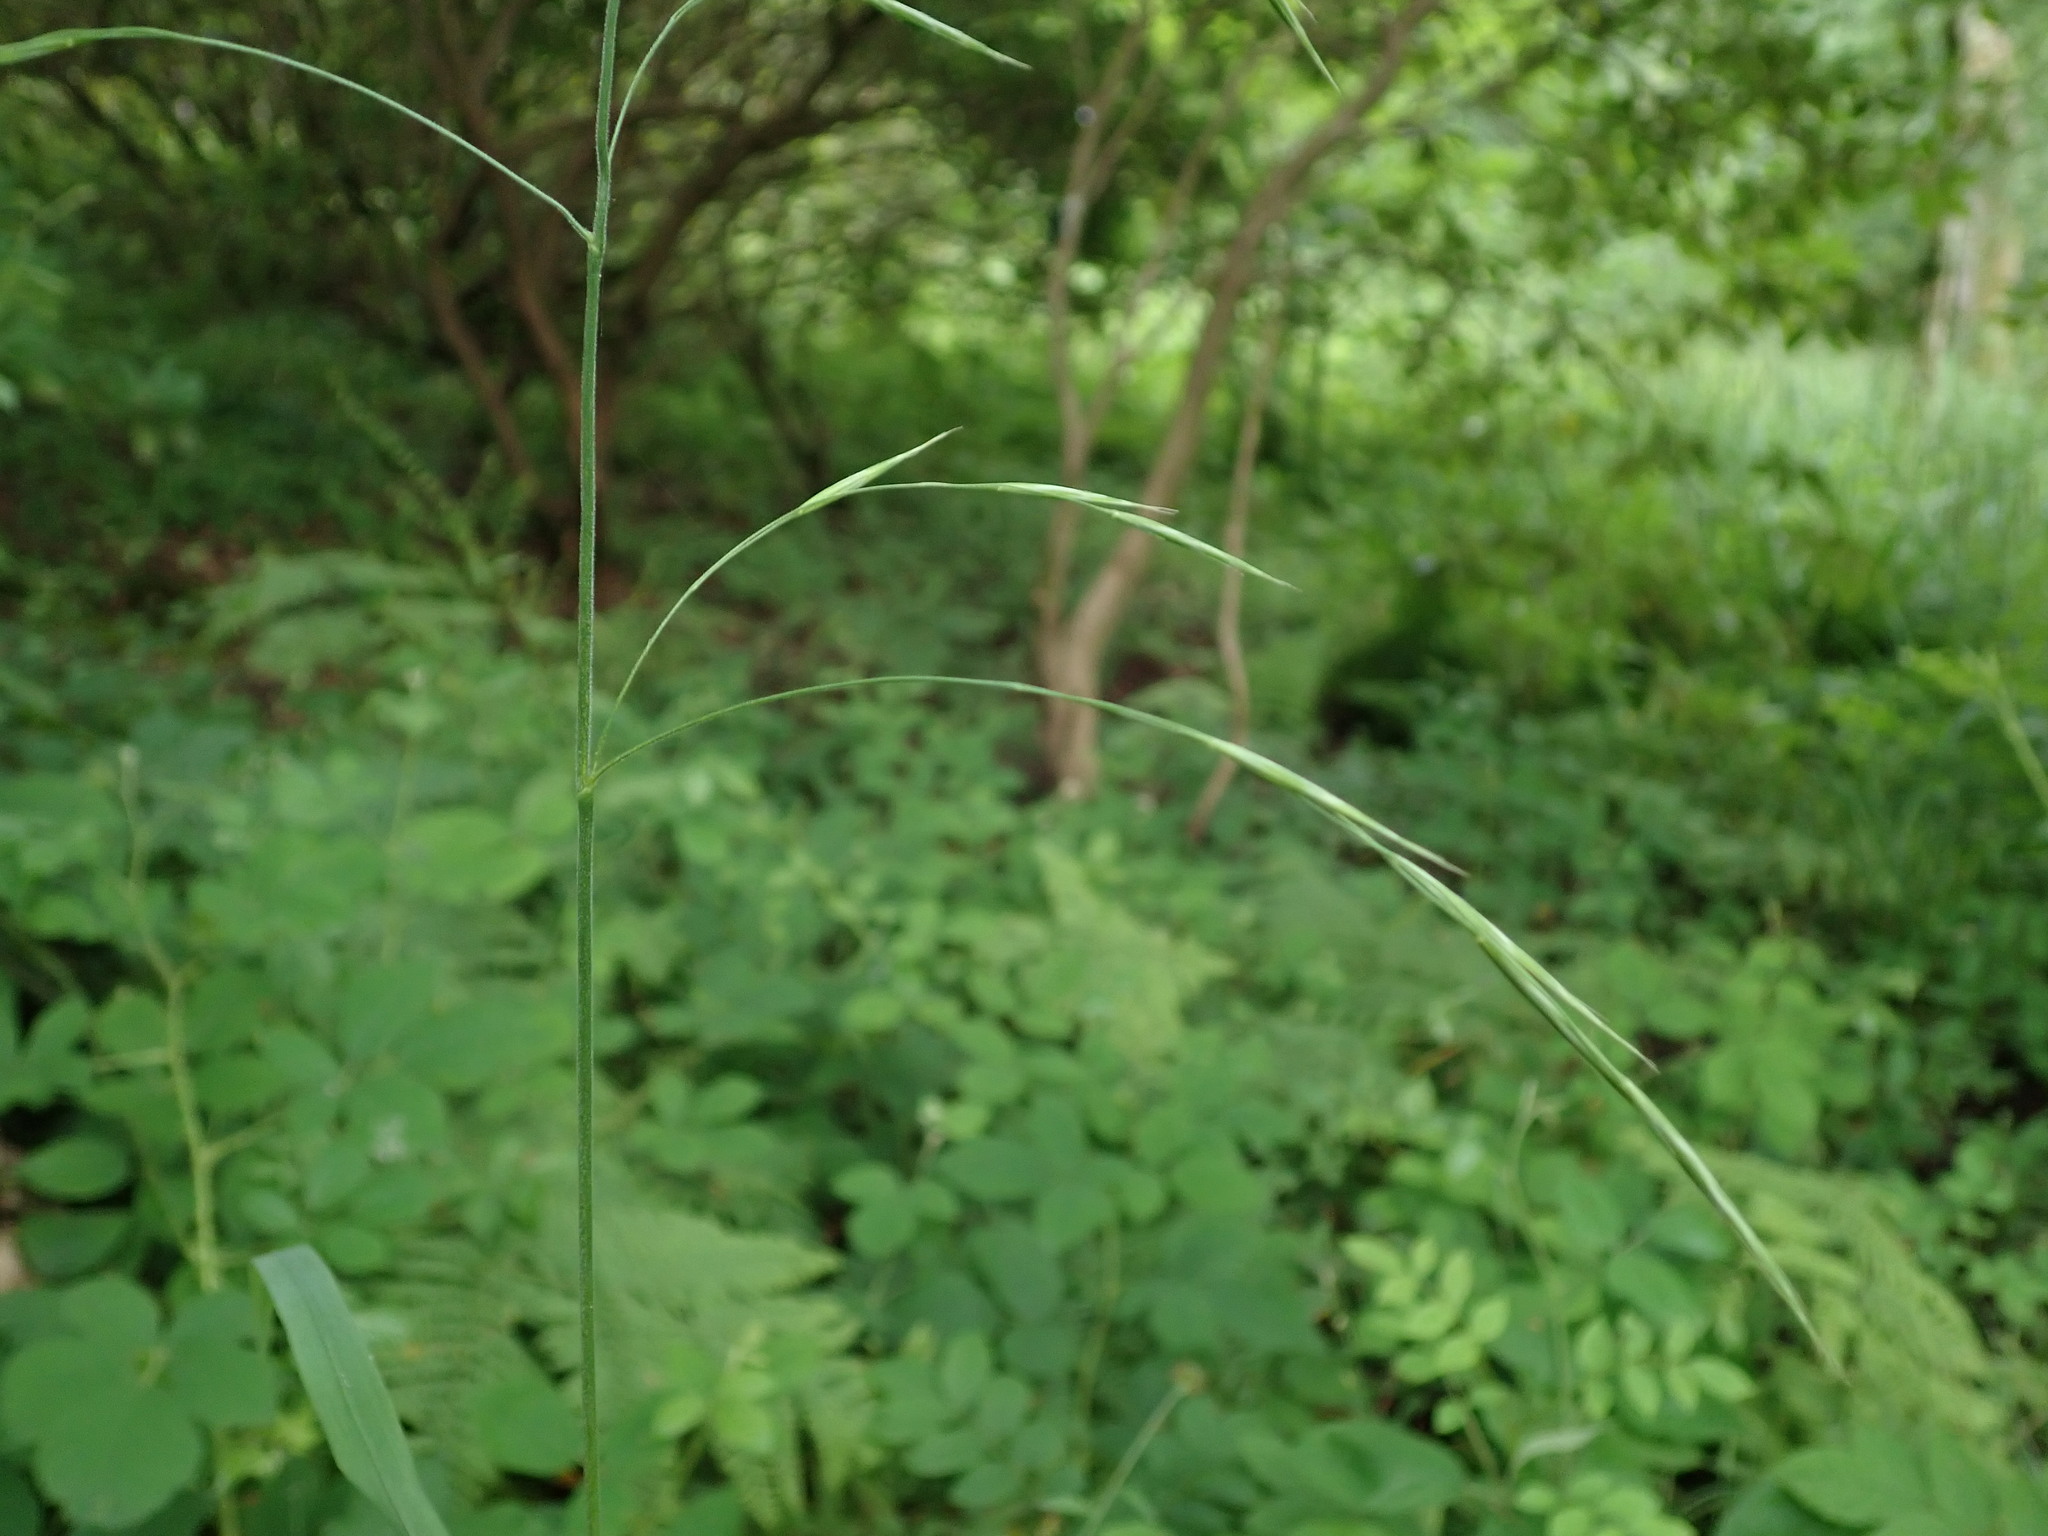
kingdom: Plantae
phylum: Tracheophyta
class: Liliopsida
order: Poales
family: Poaceae
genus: Bromus
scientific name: Bromus ramosus
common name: Hairy brome
